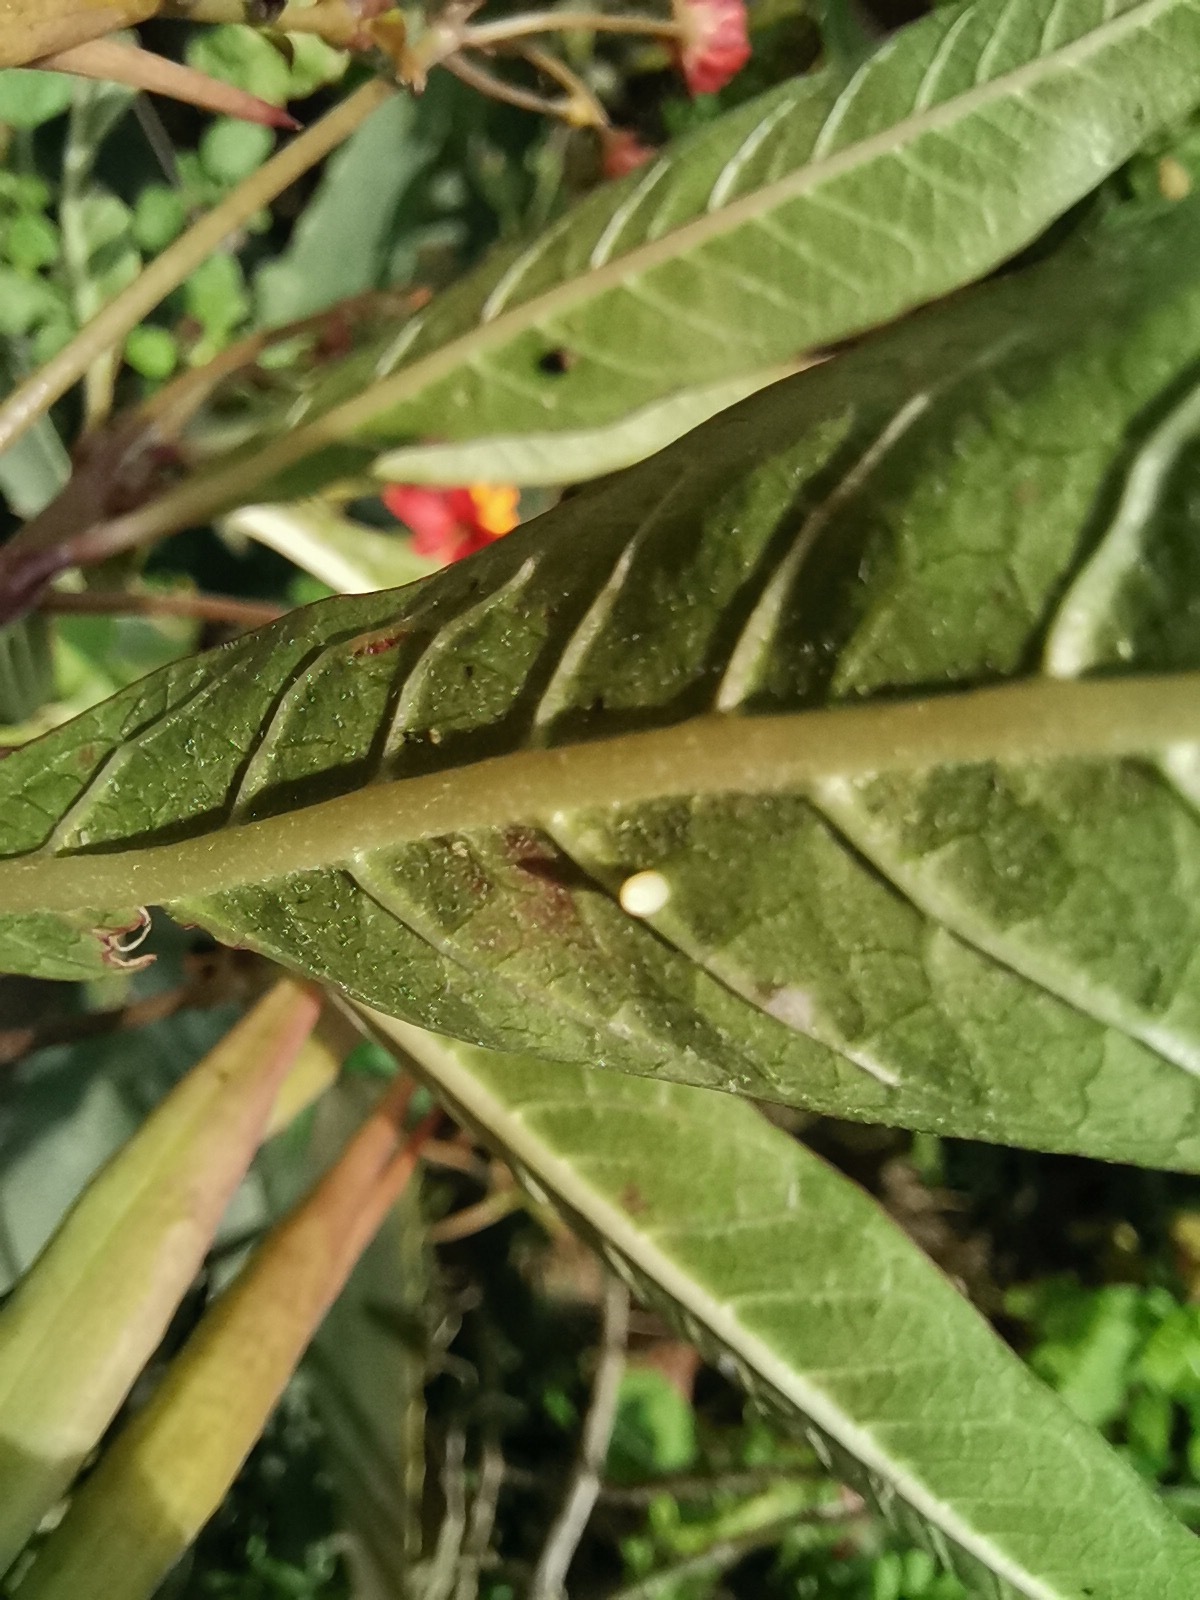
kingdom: Animalia
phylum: Arthropoda
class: Insecta
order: Lepidoptera
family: Nymphalidae
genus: Danaus
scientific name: Danaus plexippus
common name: Monarch
